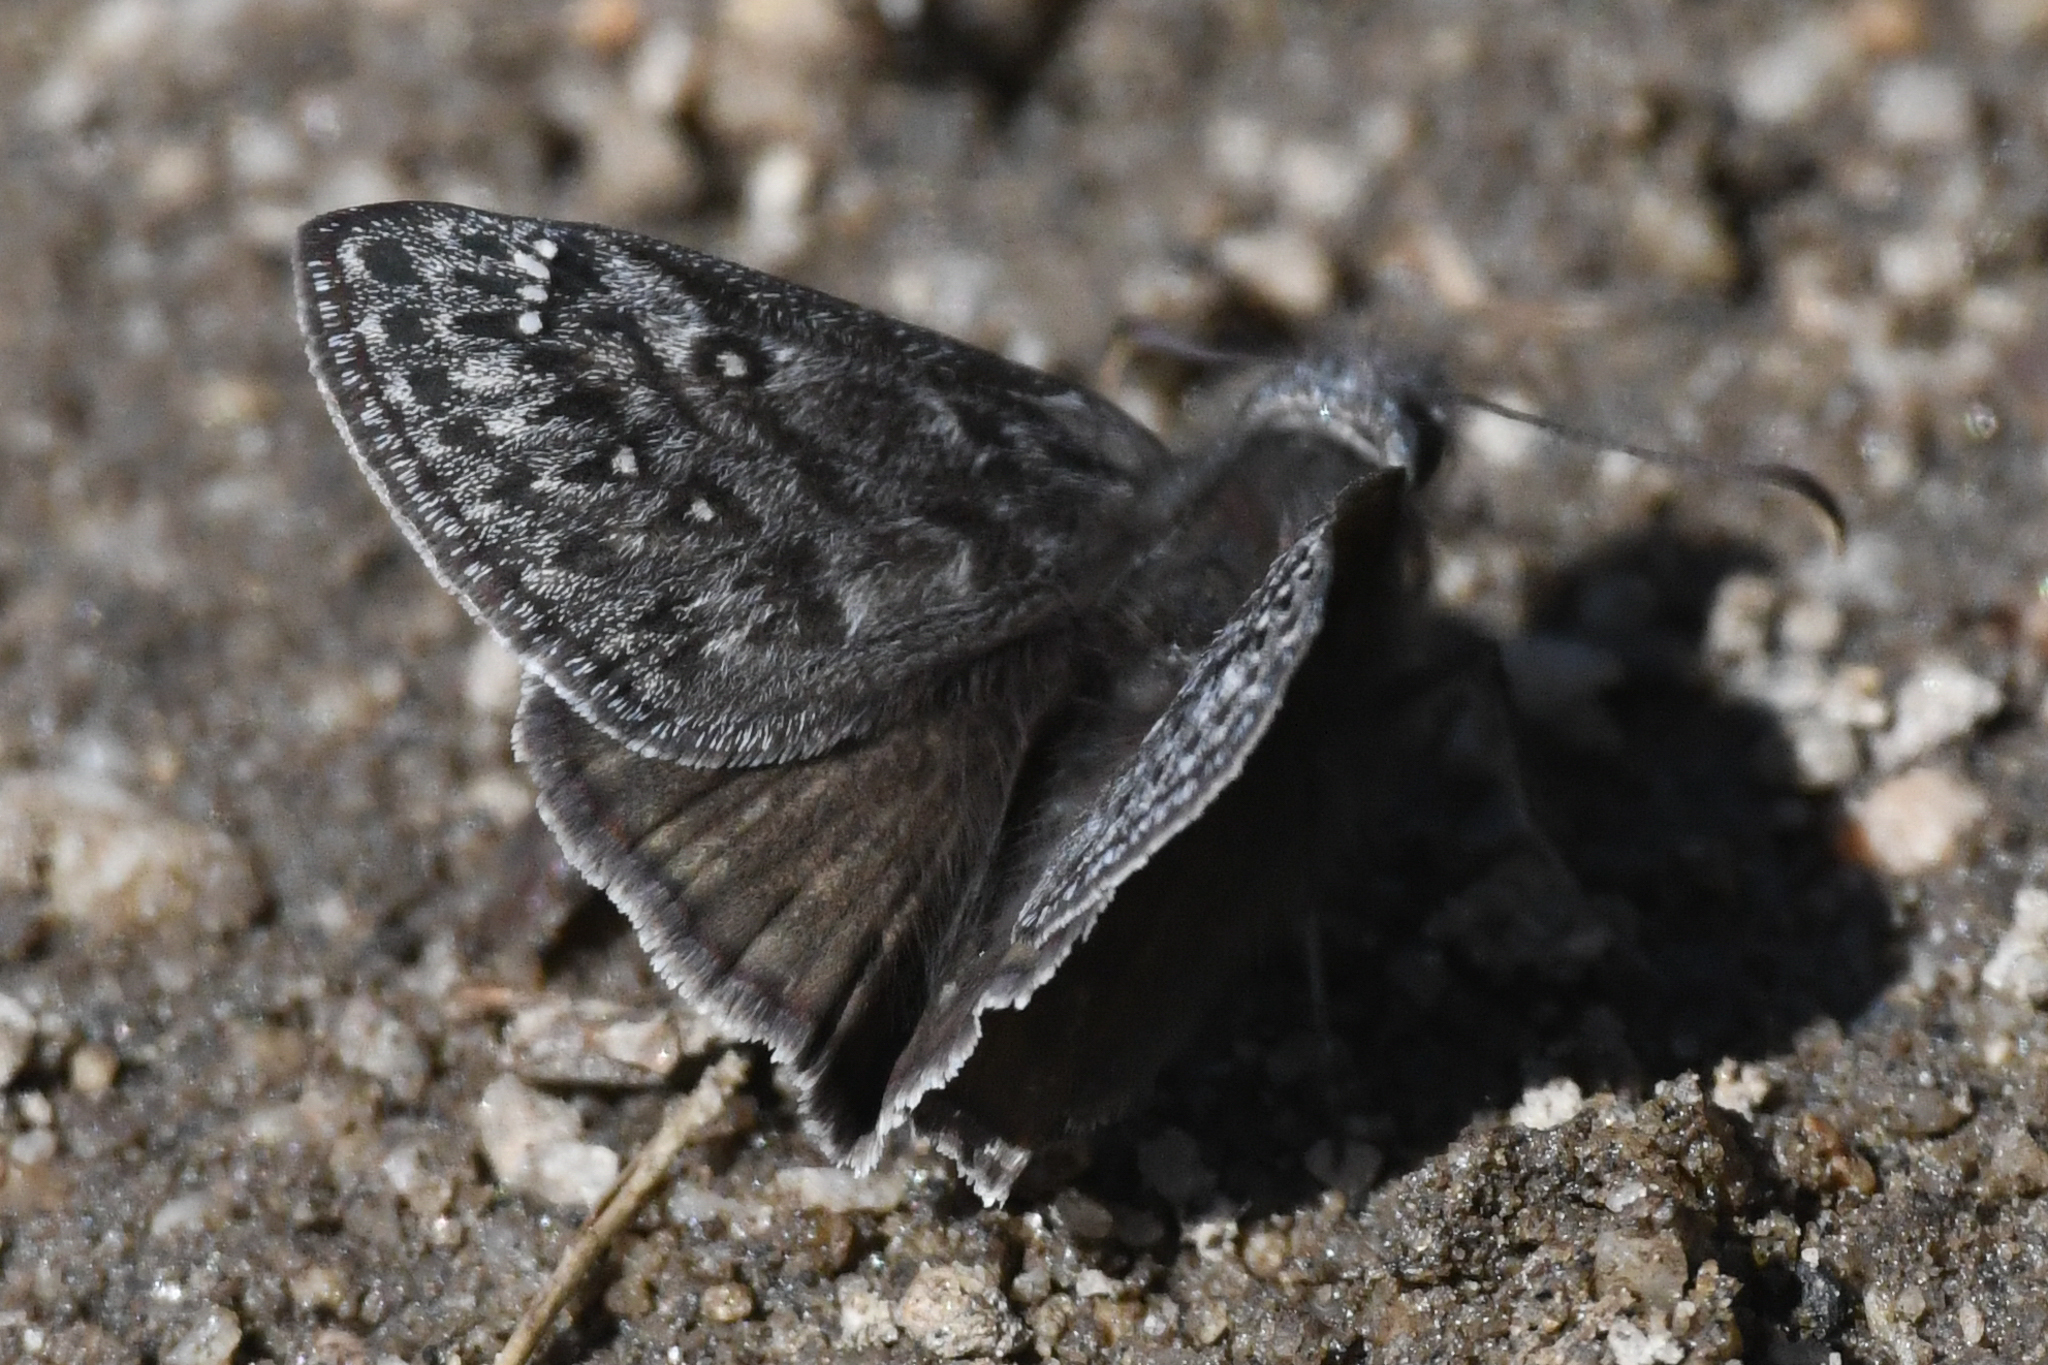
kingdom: Animalia
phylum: Arthropoda
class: Insecta
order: Lepidoptera
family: Hesperiidae
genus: Erynnis
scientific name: Erynnis propertius
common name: Propertius duskywing
